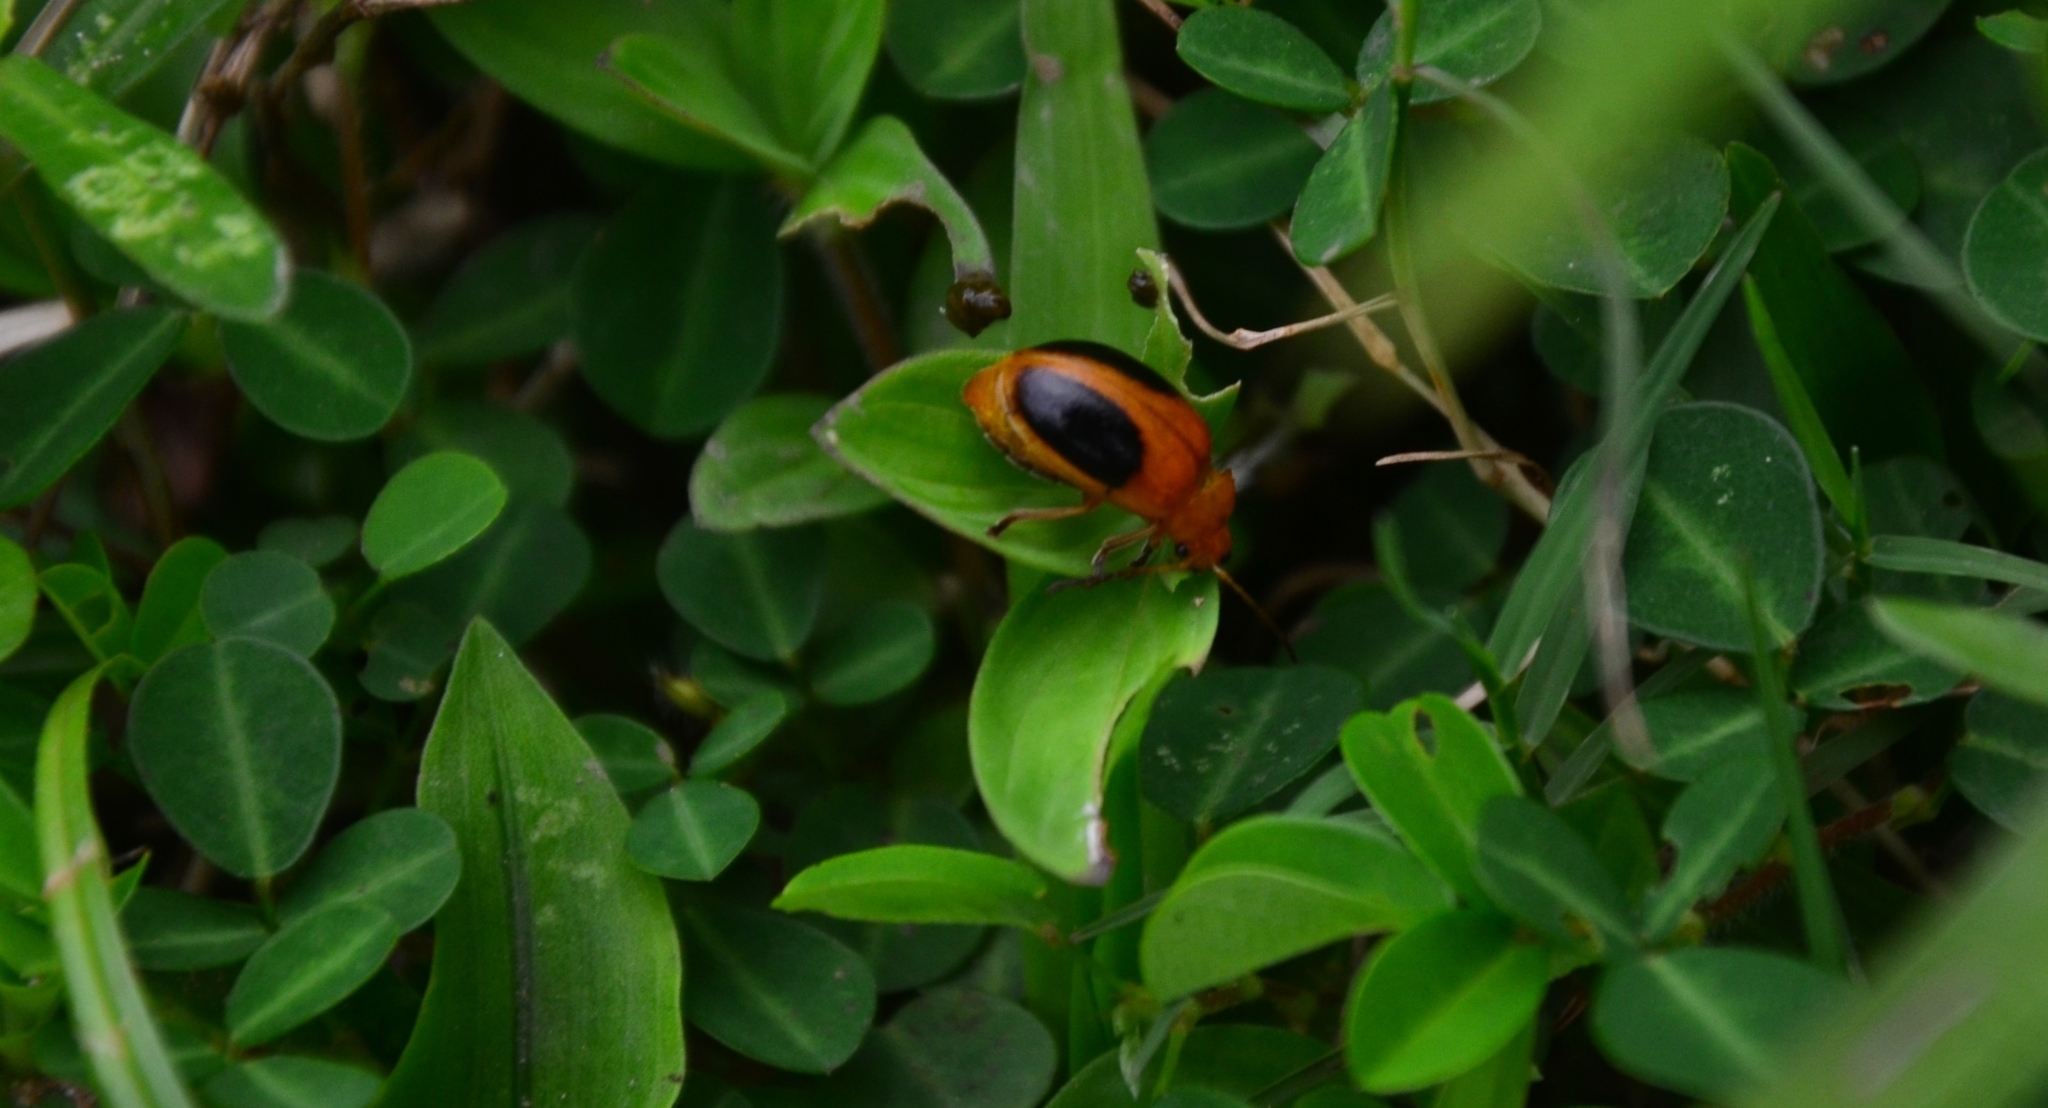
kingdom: Animalia
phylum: Arthropoda
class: Insecta
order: Coleoptera
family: Chrysomelidae
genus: Oides
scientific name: Oides affinis
